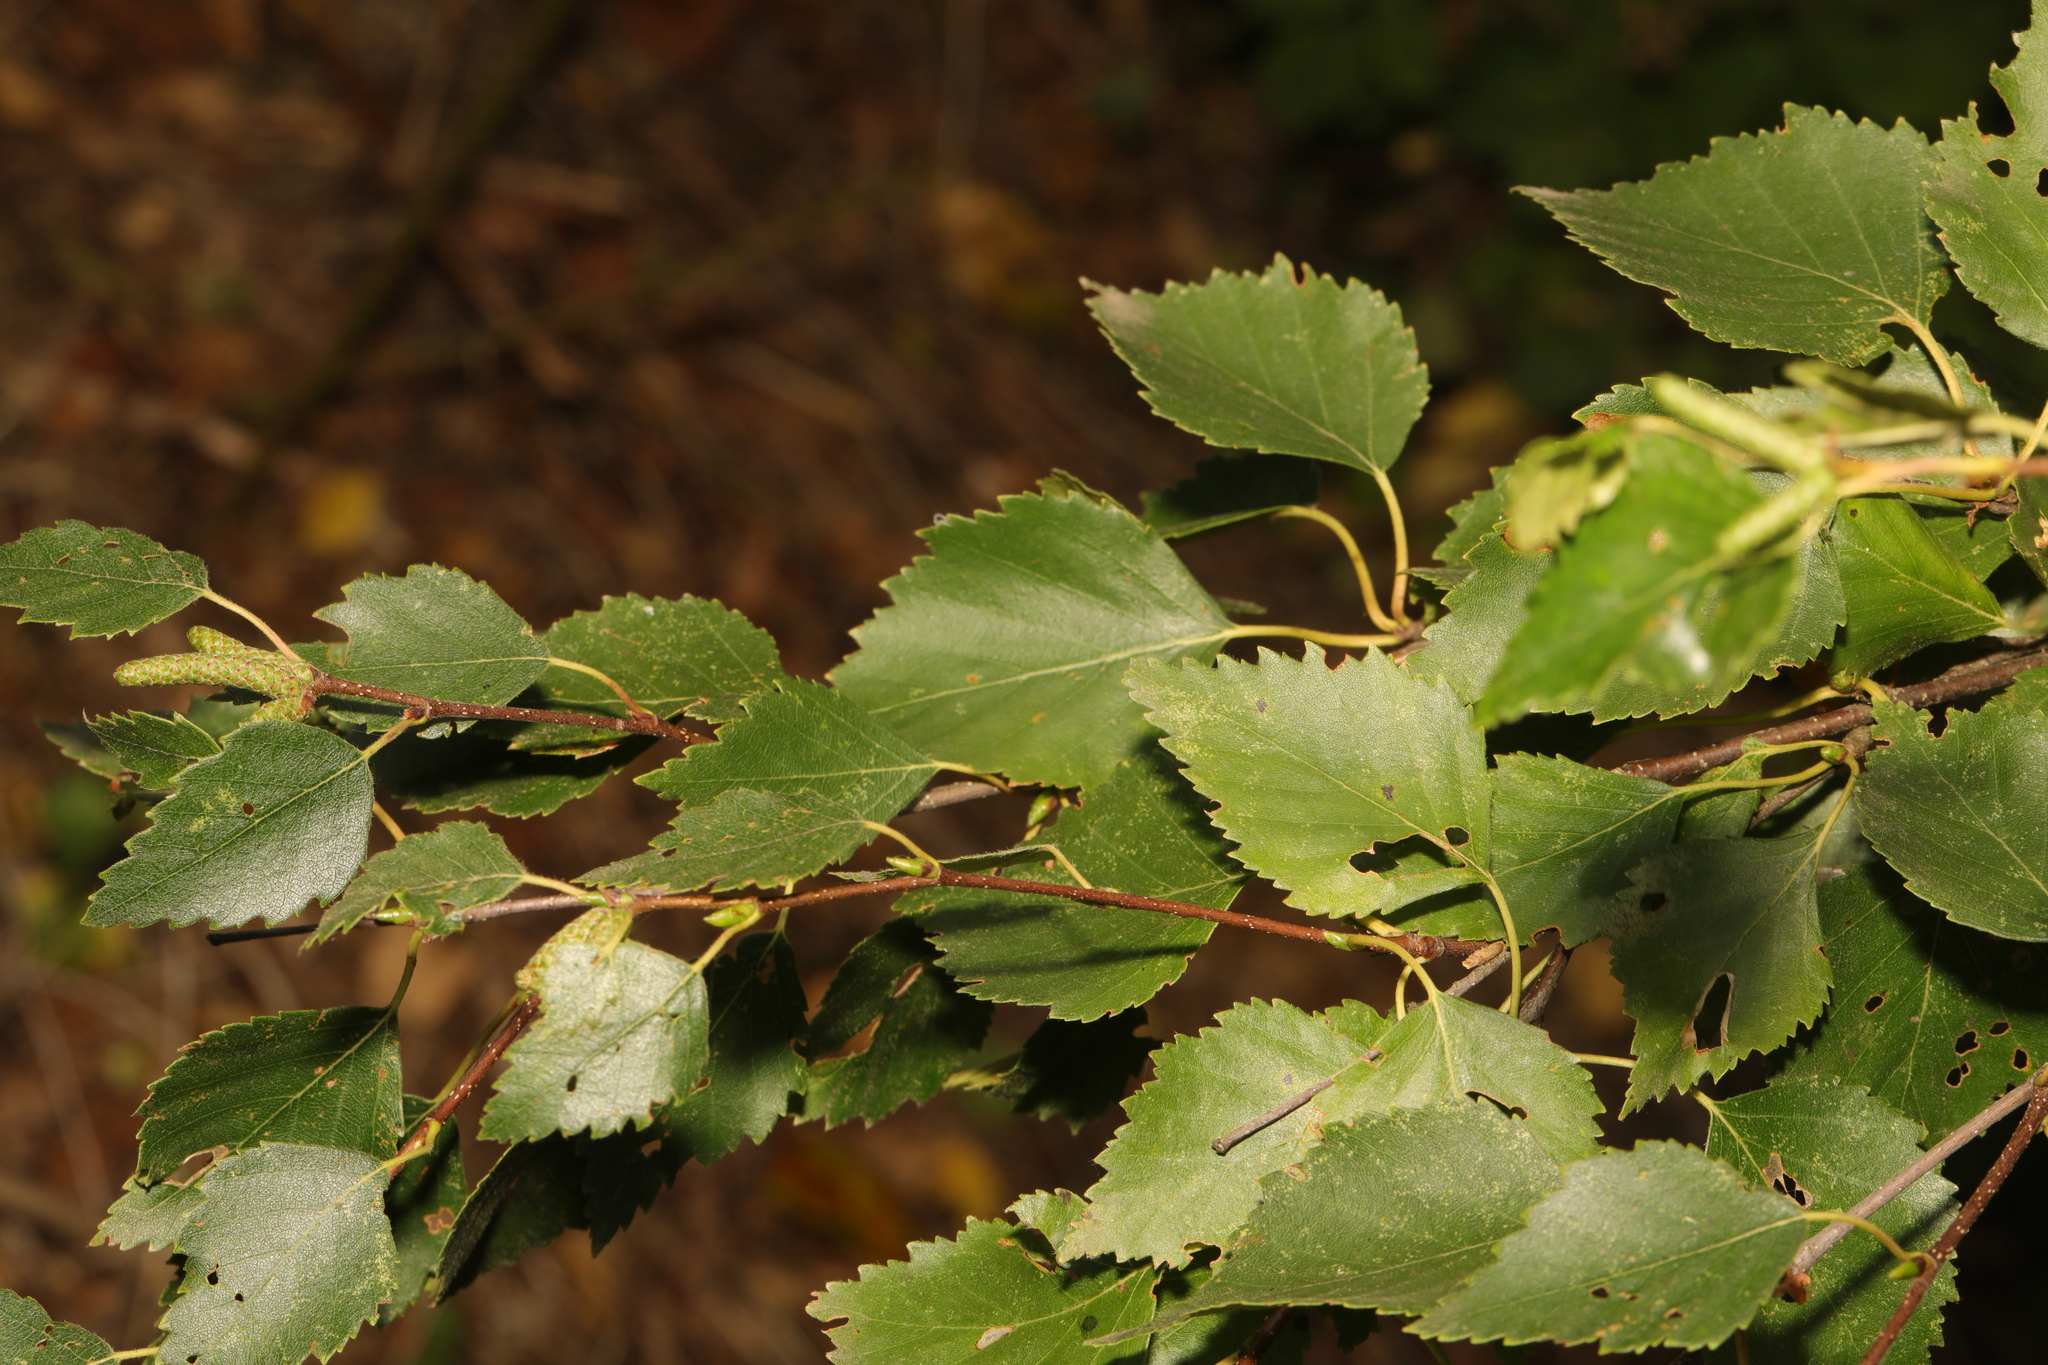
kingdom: Plantae
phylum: Tracheophyta
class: Magnoliopsida
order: Fagales
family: Betulaceae
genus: Betula
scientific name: Betula pendula
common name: Silver birch
